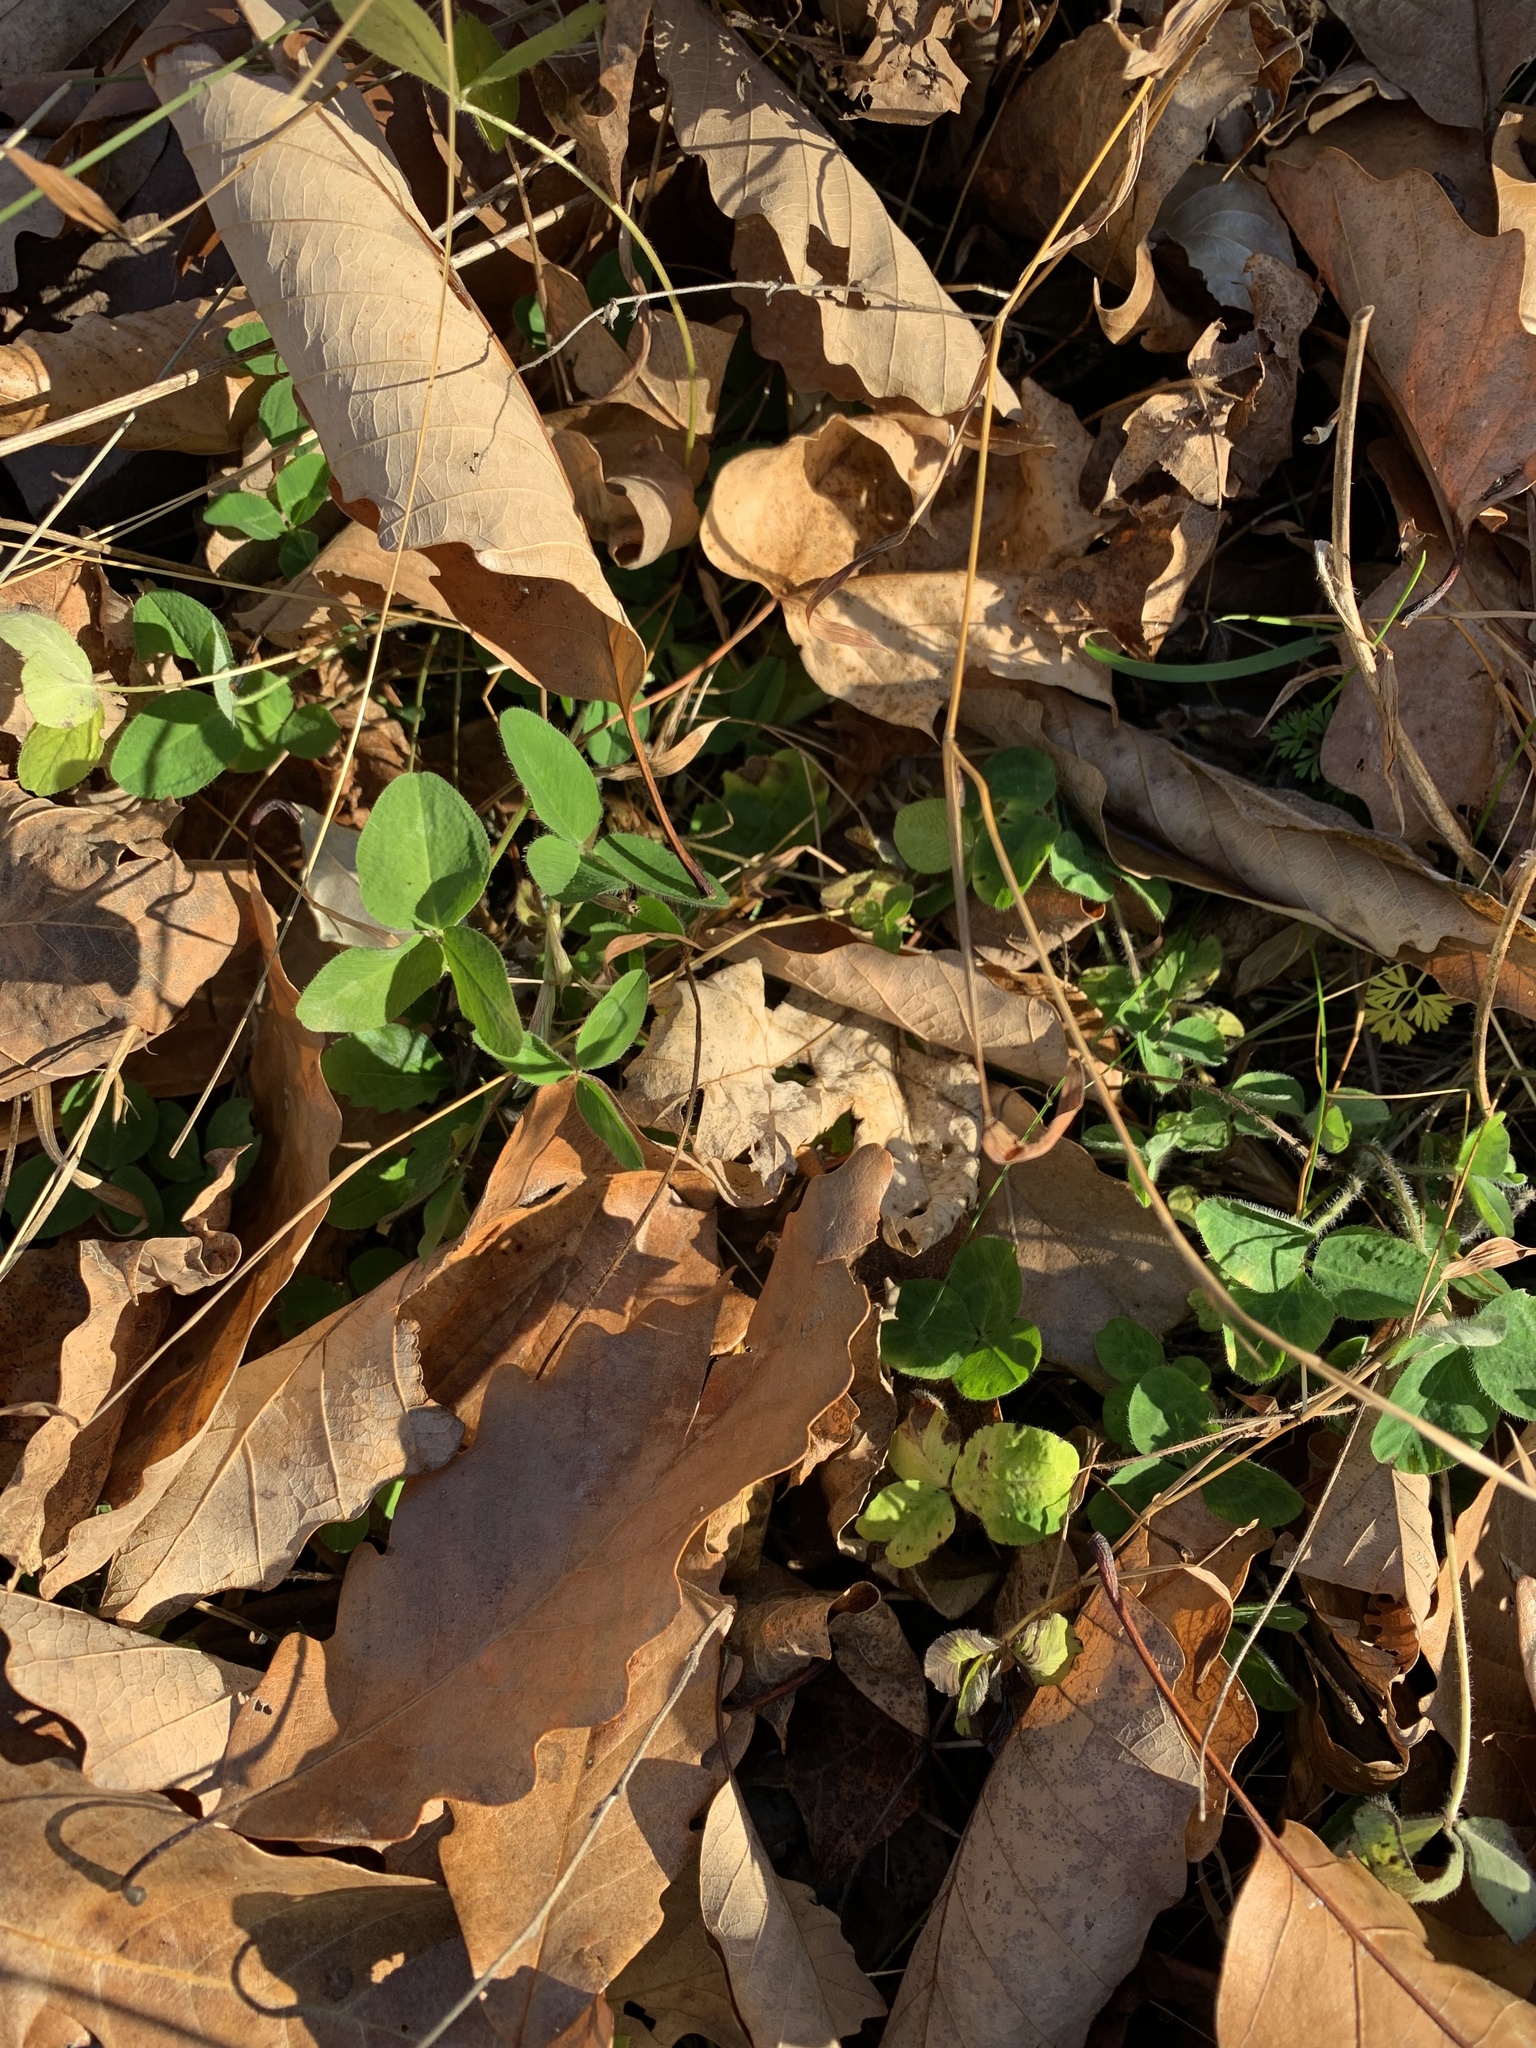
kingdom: Plantae
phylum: Tracheophyta
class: Magnoliopsida
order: Fabales
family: Fabaceae
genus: Trifolium
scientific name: Trifolium pratense
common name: Red clover
